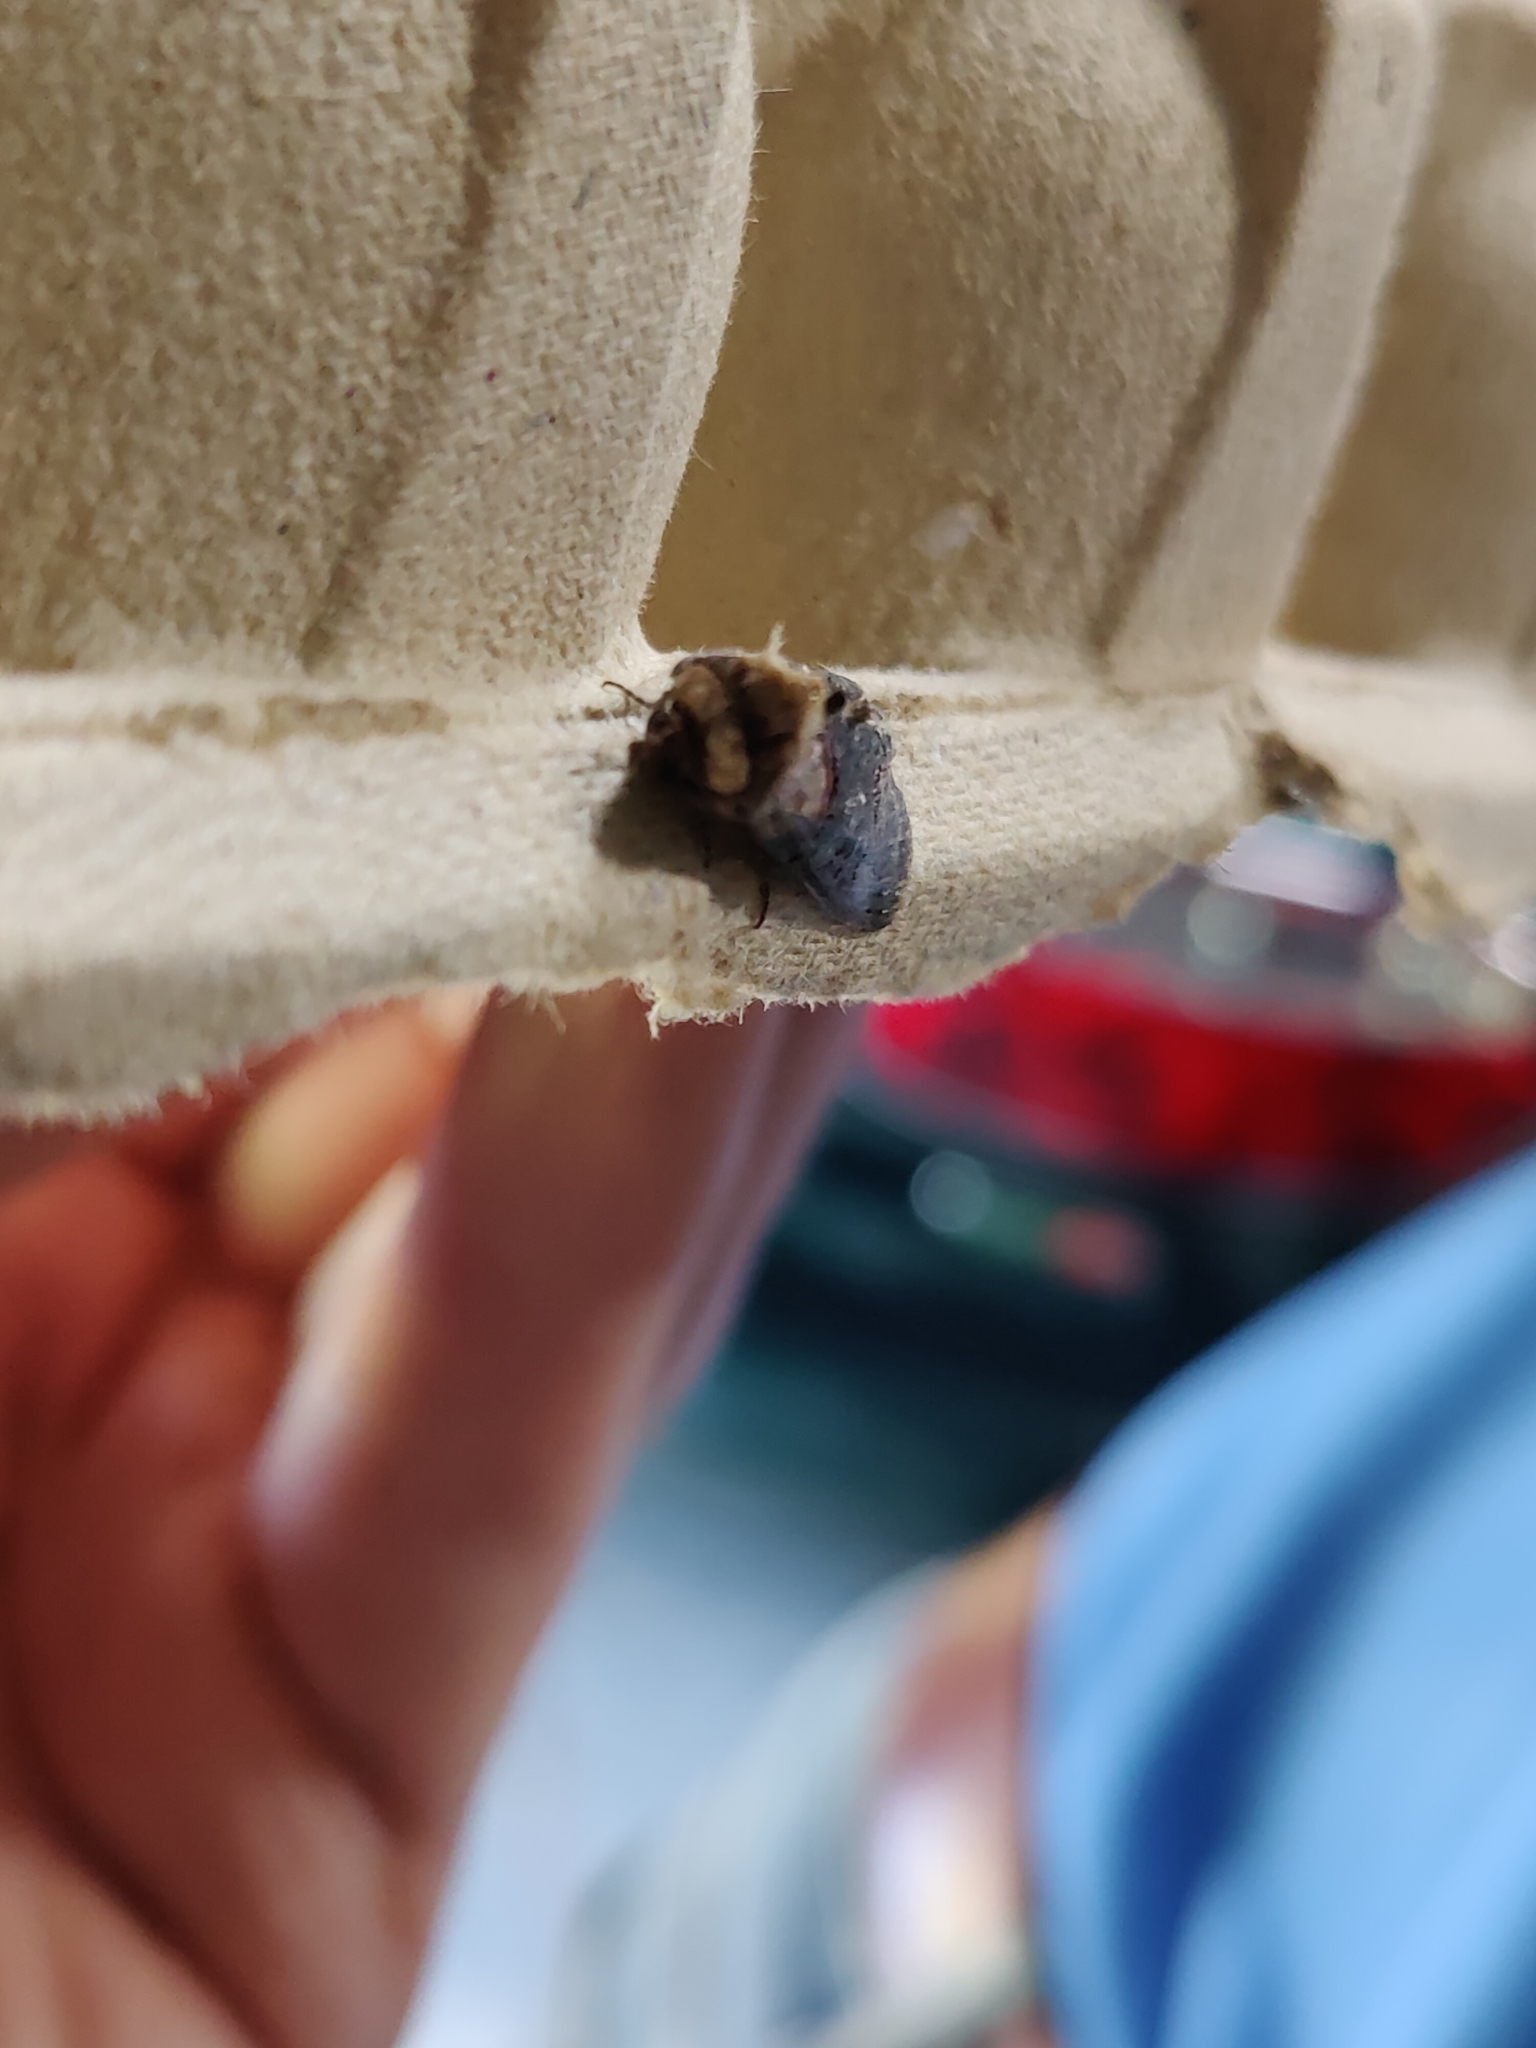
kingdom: Animalia
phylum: Arthropoda
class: Insecta
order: Lepidoptera
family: Noctuidae
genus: Abrostola
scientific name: Abrostola triplasia
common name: Dark spectacle
